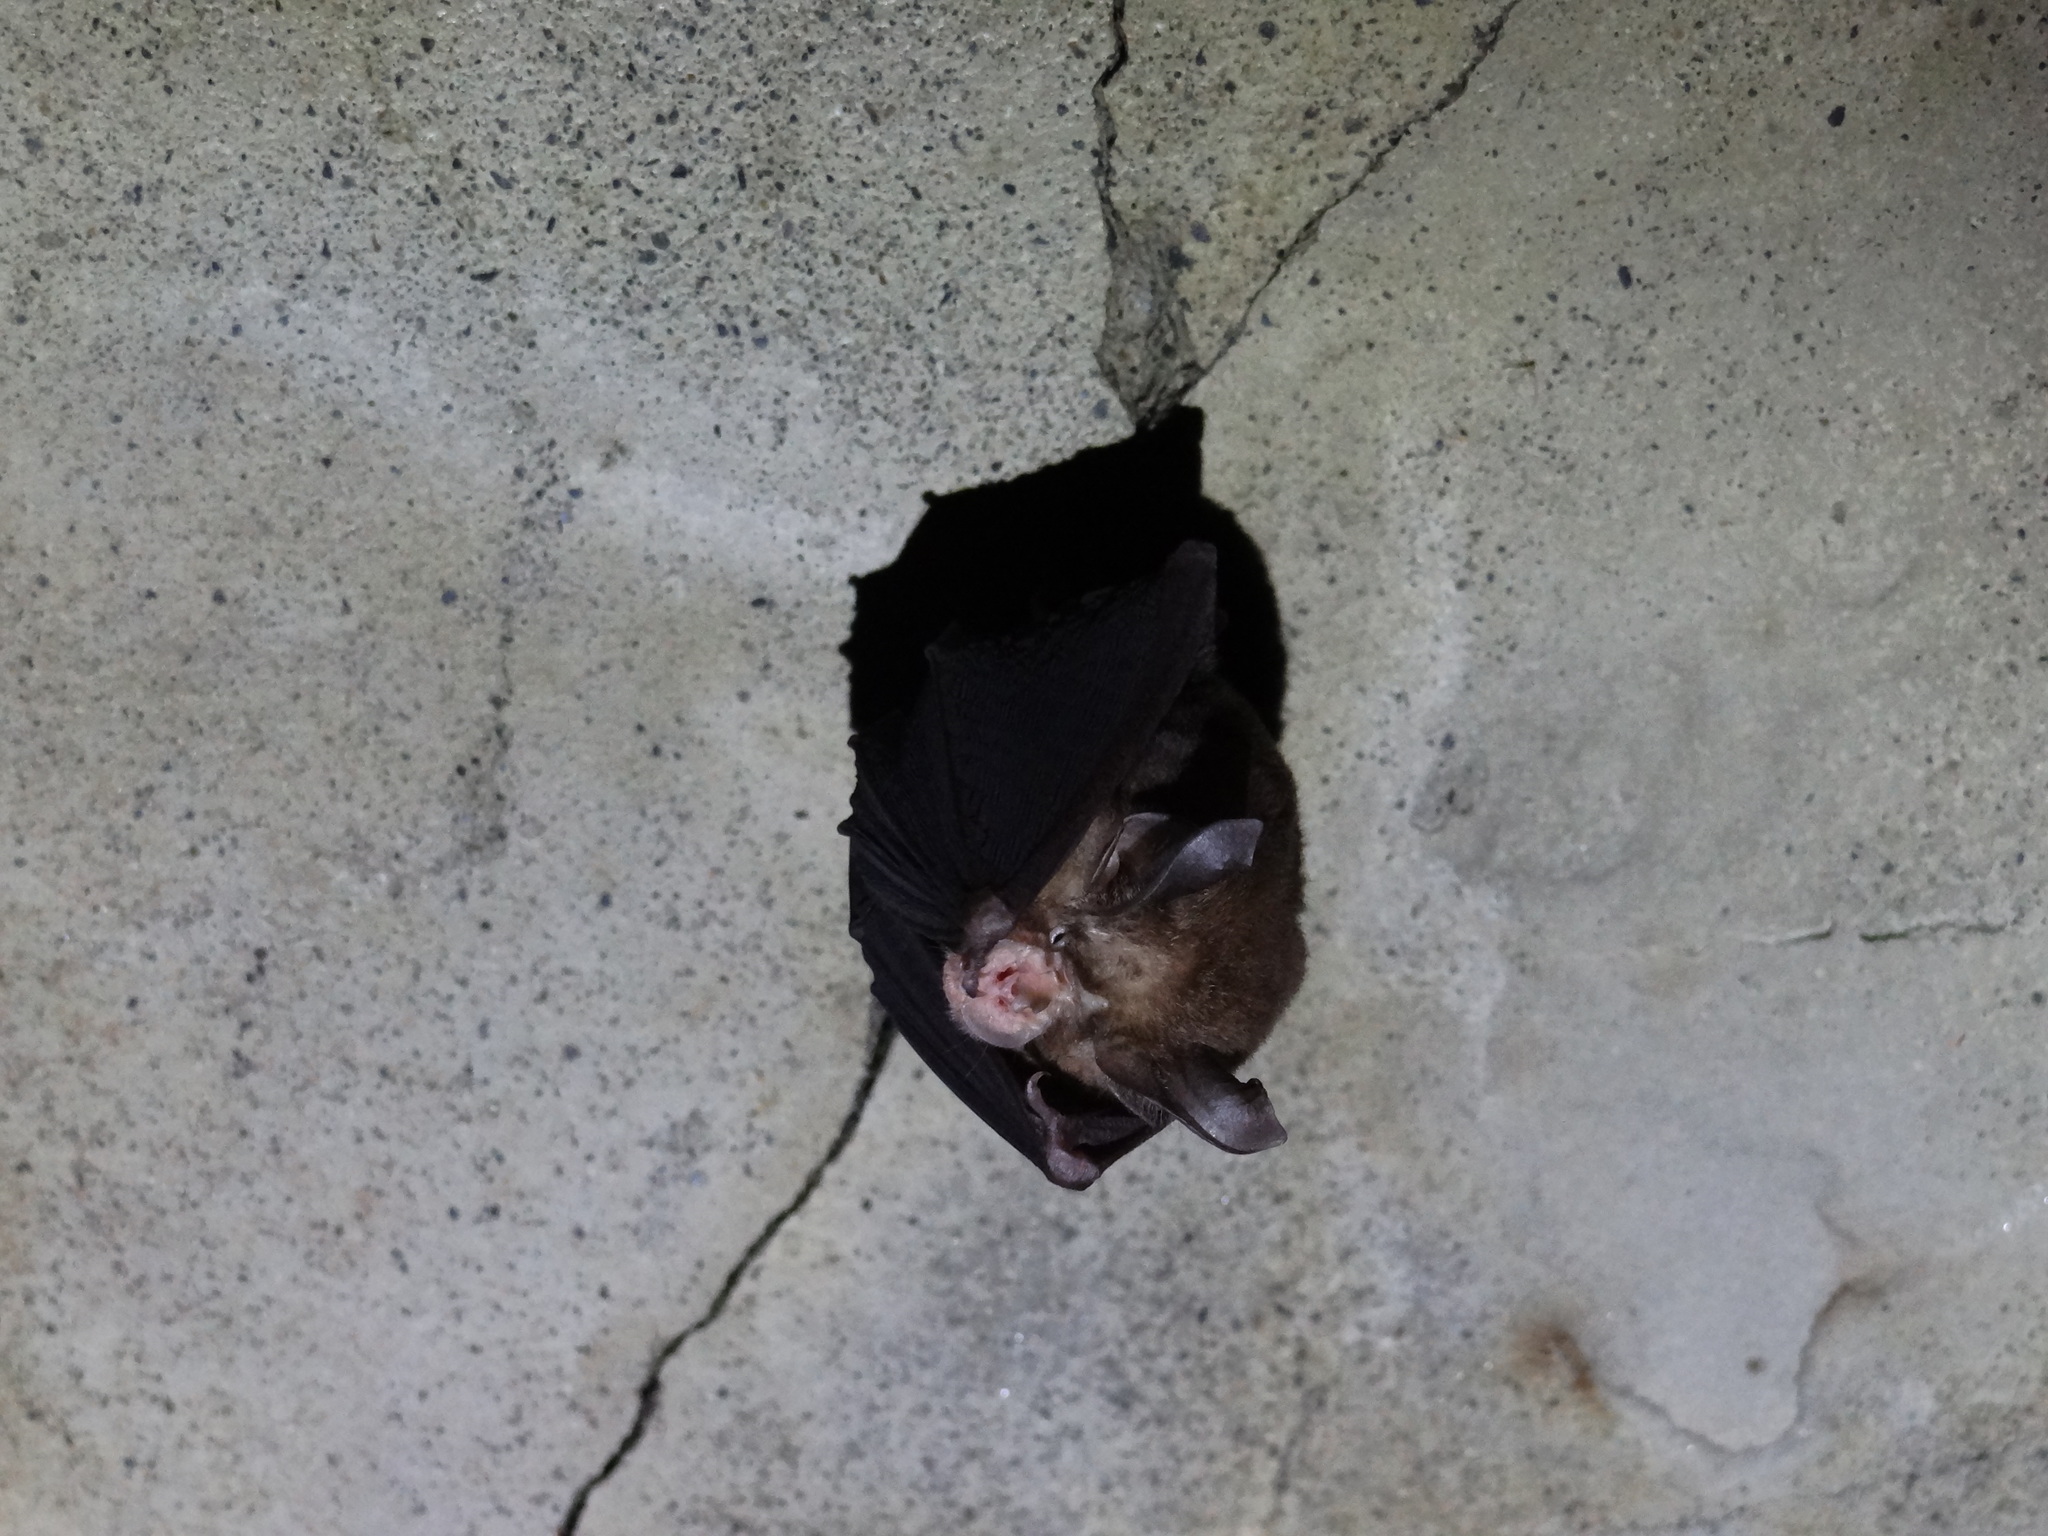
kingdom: Animalia
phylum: Chordata
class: Mammalia
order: Chiroptera
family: Rhinolophidae
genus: Rhinolophus
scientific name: Rhinolophus monoceros
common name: Formosan lesser horseshoe bat
